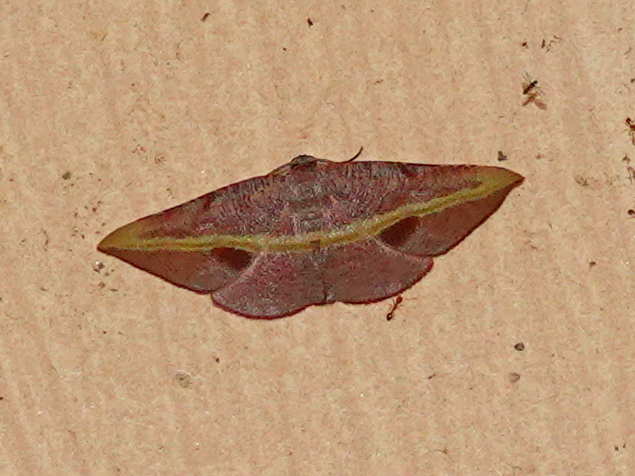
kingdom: Animalia
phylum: Arthropoda
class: Insecta
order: Lepidoptera
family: Geometridae
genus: Hypochrosis
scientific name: Hypochrosis iris
